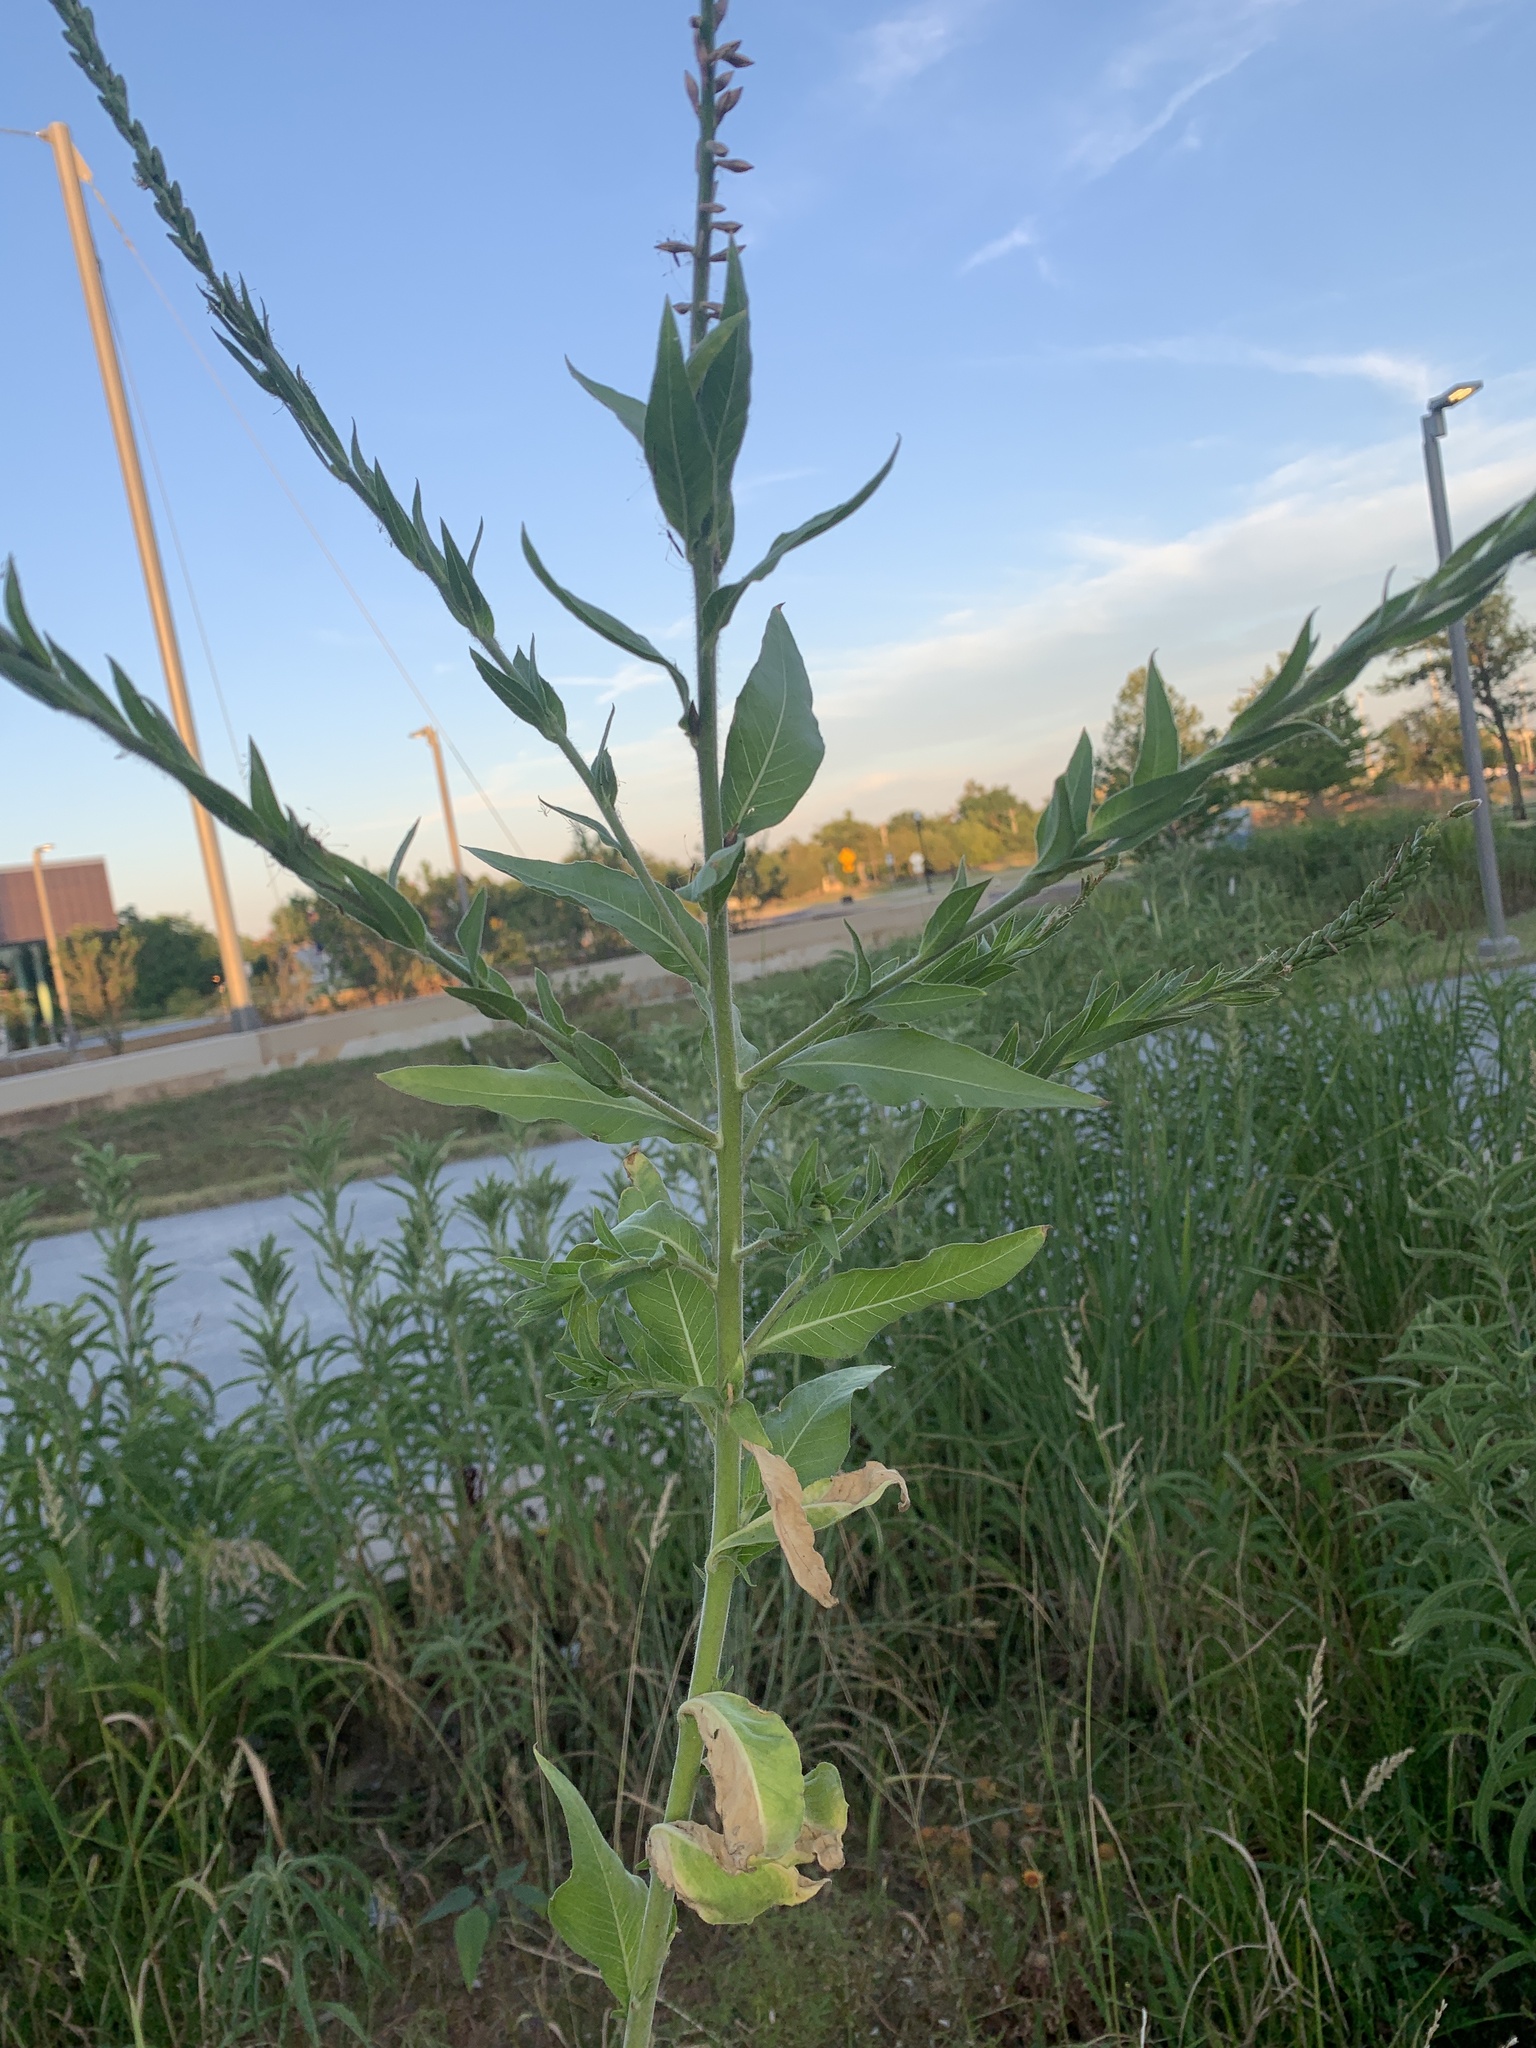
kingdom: Plantae
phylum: Tracheophyta
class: Magnoliopsida
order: Myrtales
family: Onagraceae
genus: Oenothera
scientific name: Oenothera curtiflora
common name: Velvetweed
